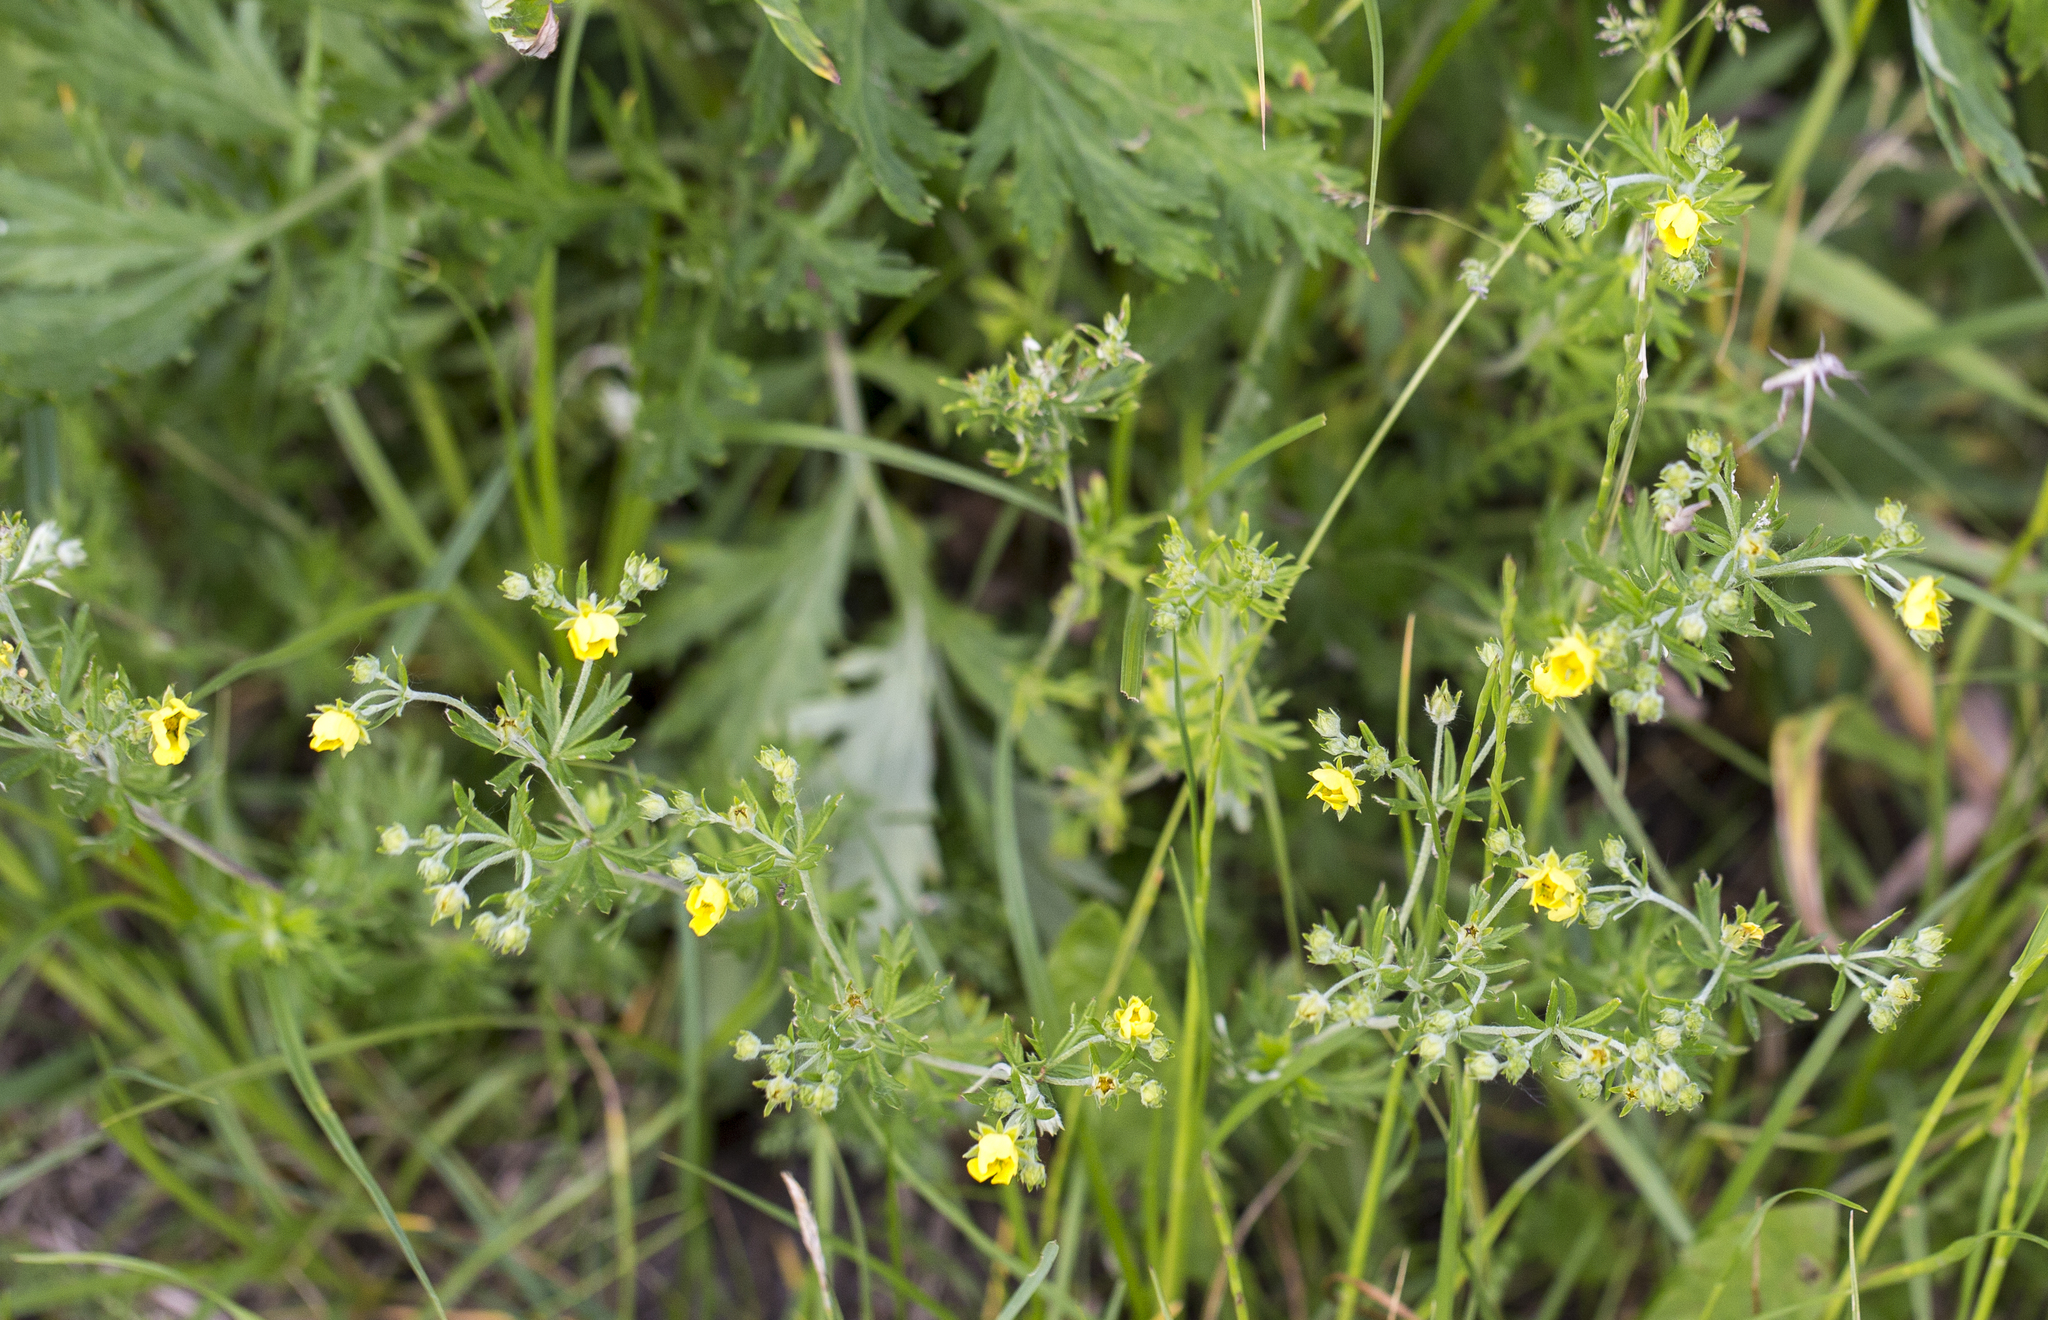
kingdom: Plantae
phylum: Tracheophyta
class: Magnoliopsida
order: Rosales
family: Rosaceae
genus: Potentilla
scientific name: Potentilla argentea
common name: Hoary cinquefoil
